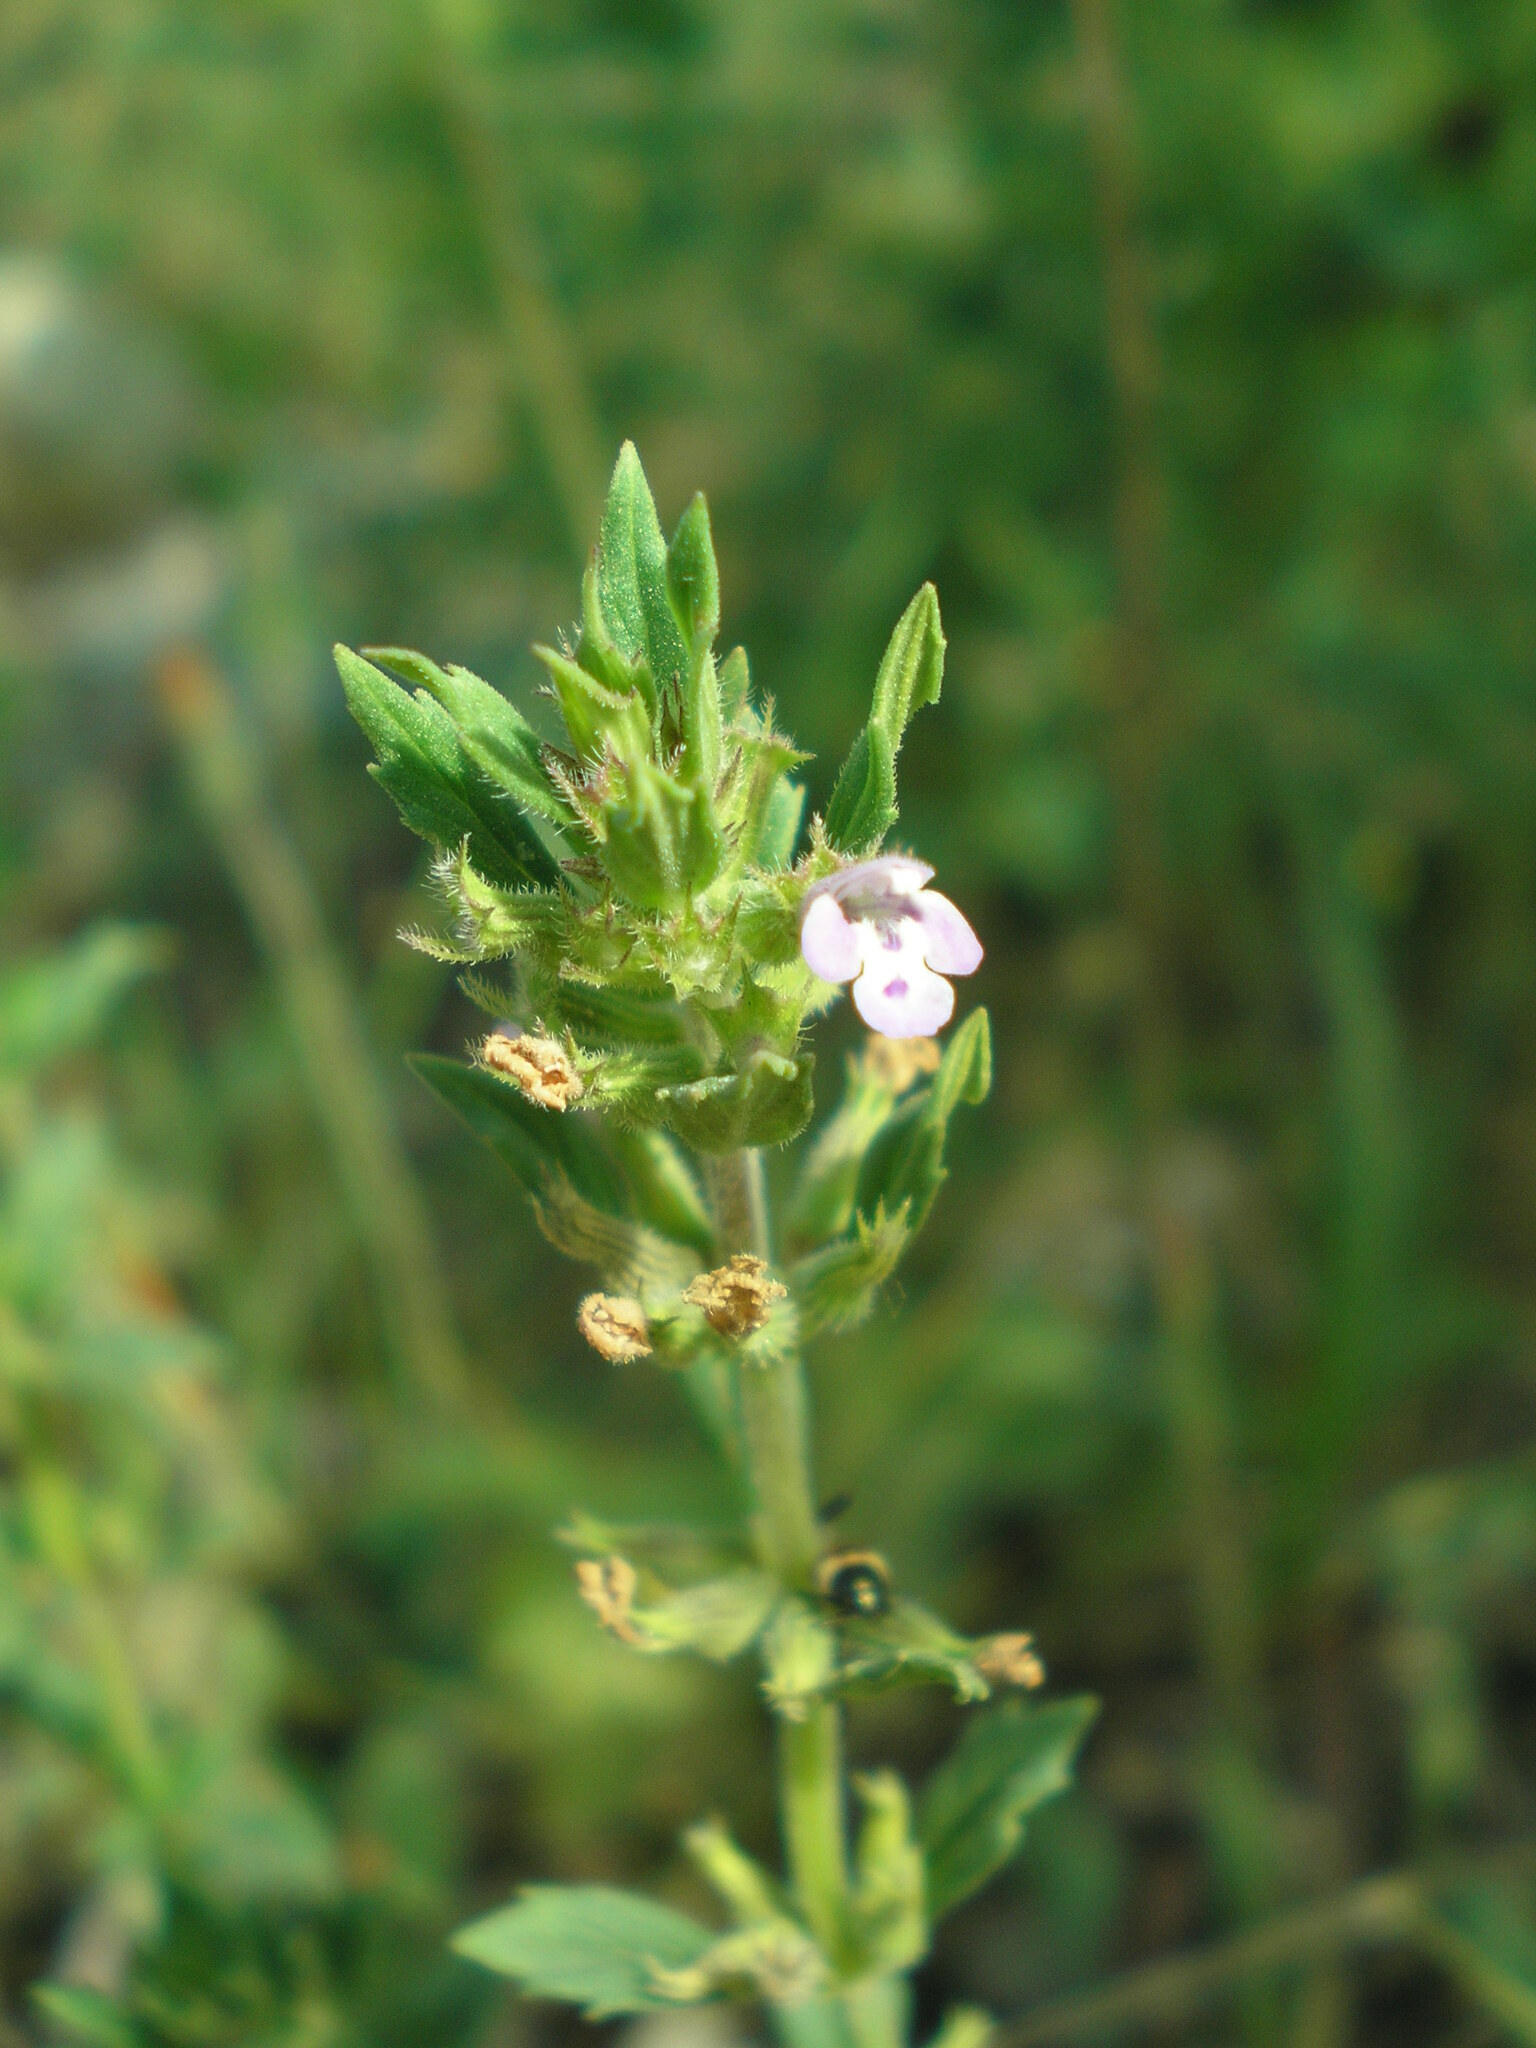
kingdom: Plantae
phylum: Tracheophyta
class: Magnoliopsida
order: Lamiales
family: Lamiaceae
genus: Clinopodium
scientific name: Clinopodium acinos
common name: Basil thyme
